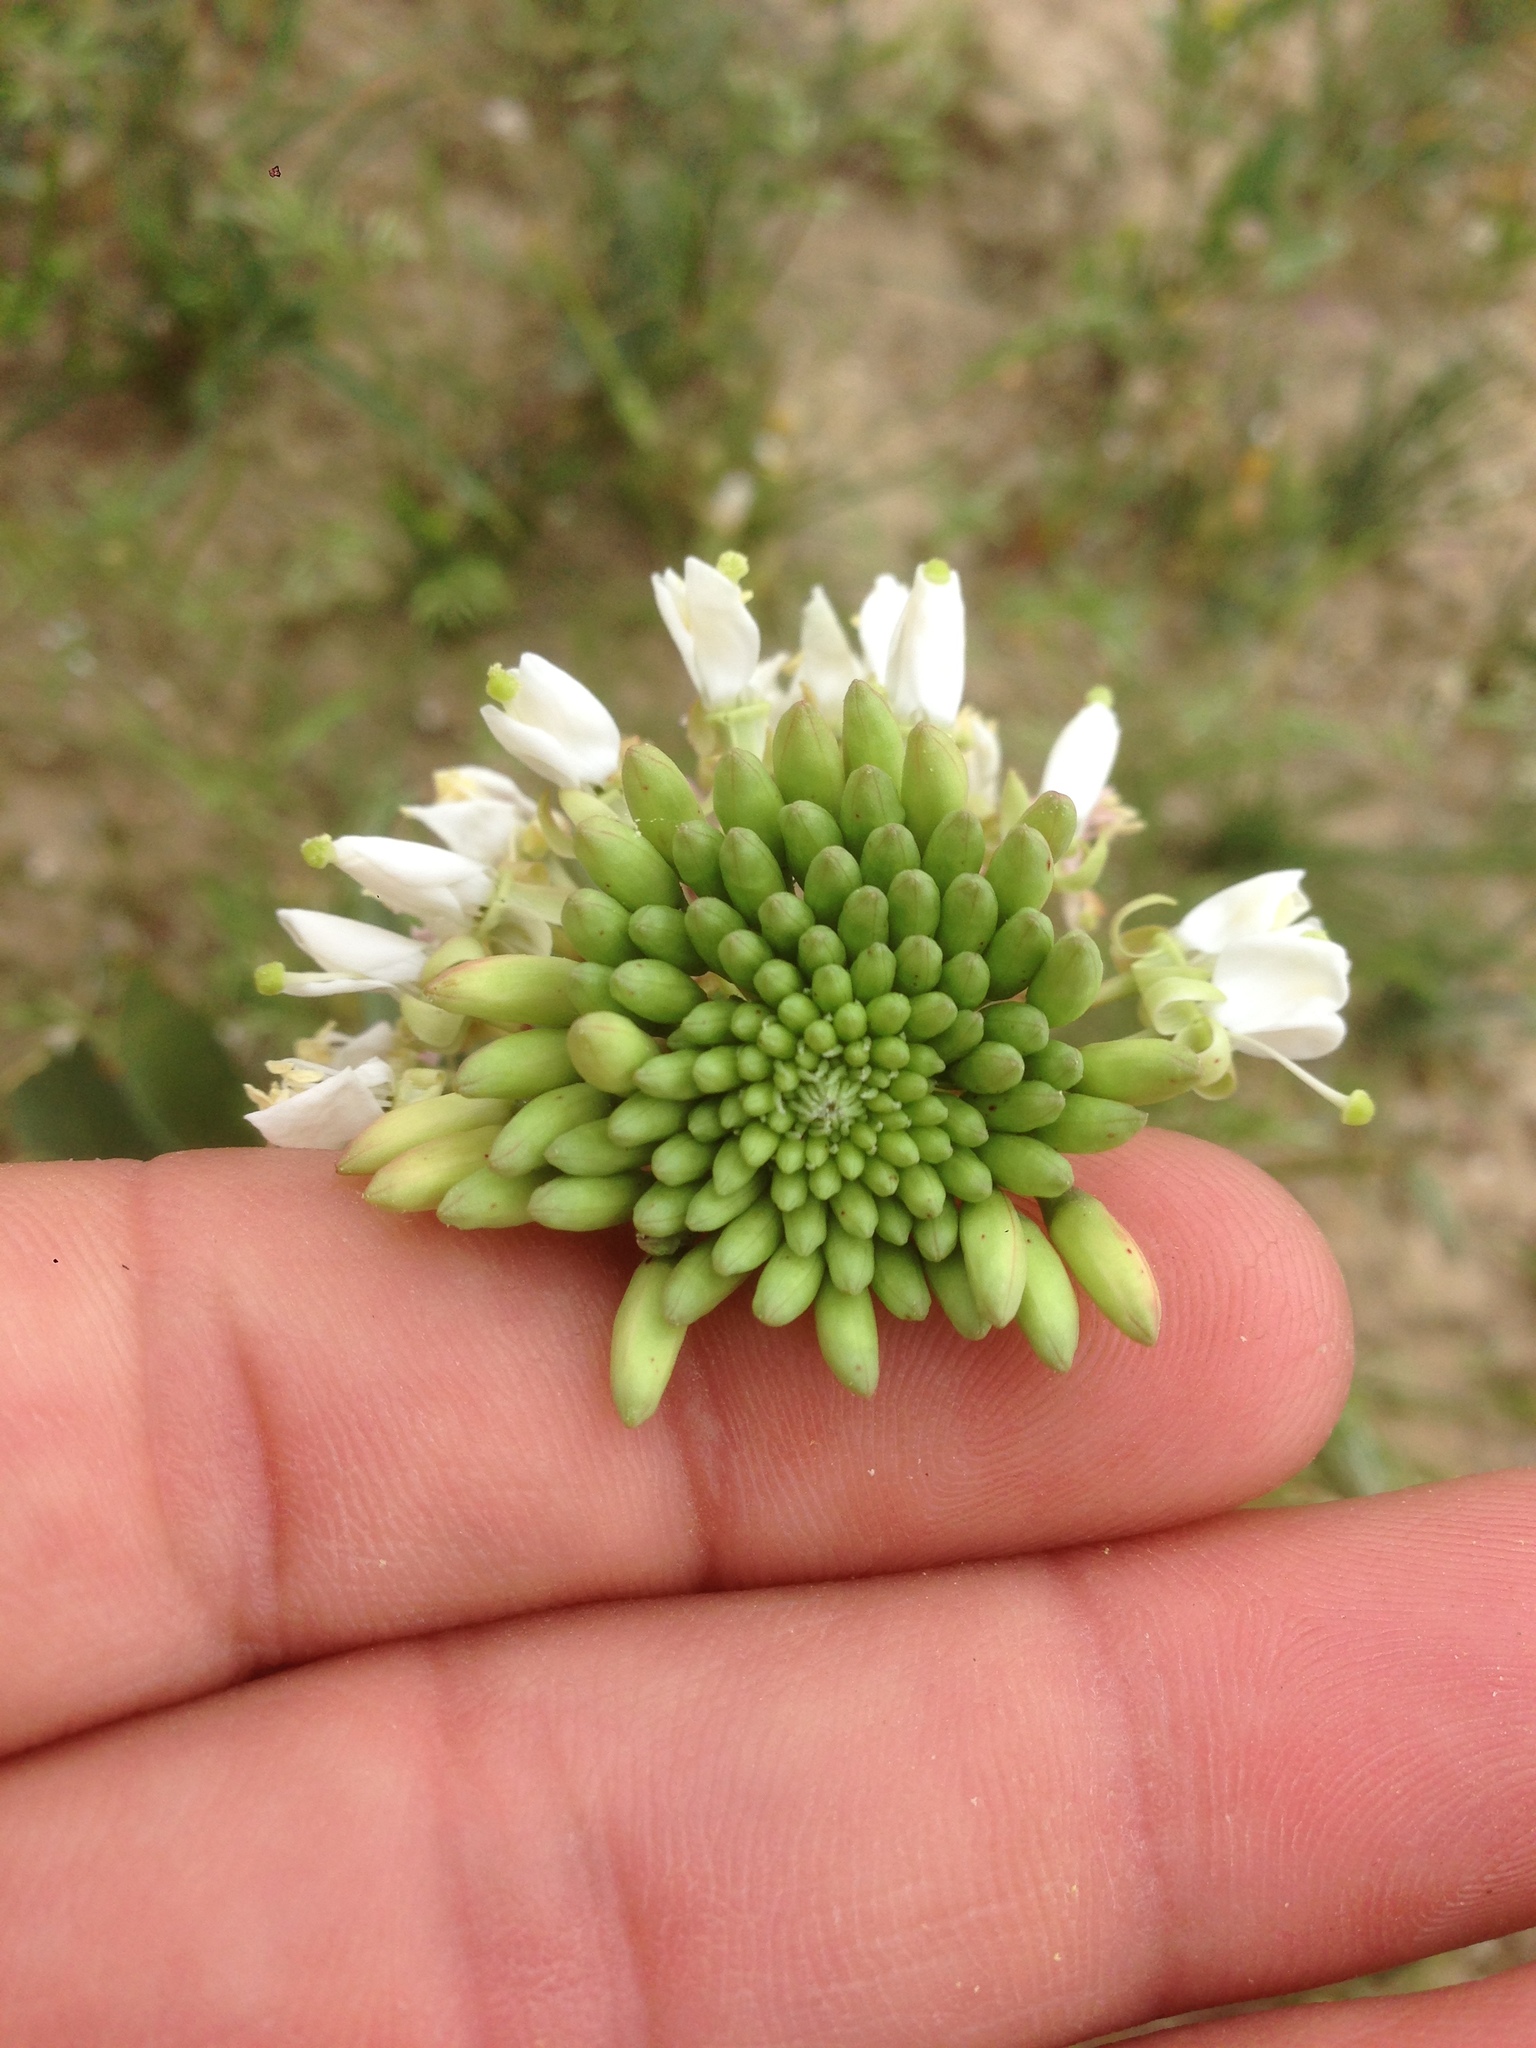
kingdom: Plantae
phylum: Tracheophyta
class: Magnoliopsida
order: Myrtales
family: Onagraceae
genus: Eremothera
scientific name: Eremothera boothii
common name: Booth's evening primrose
